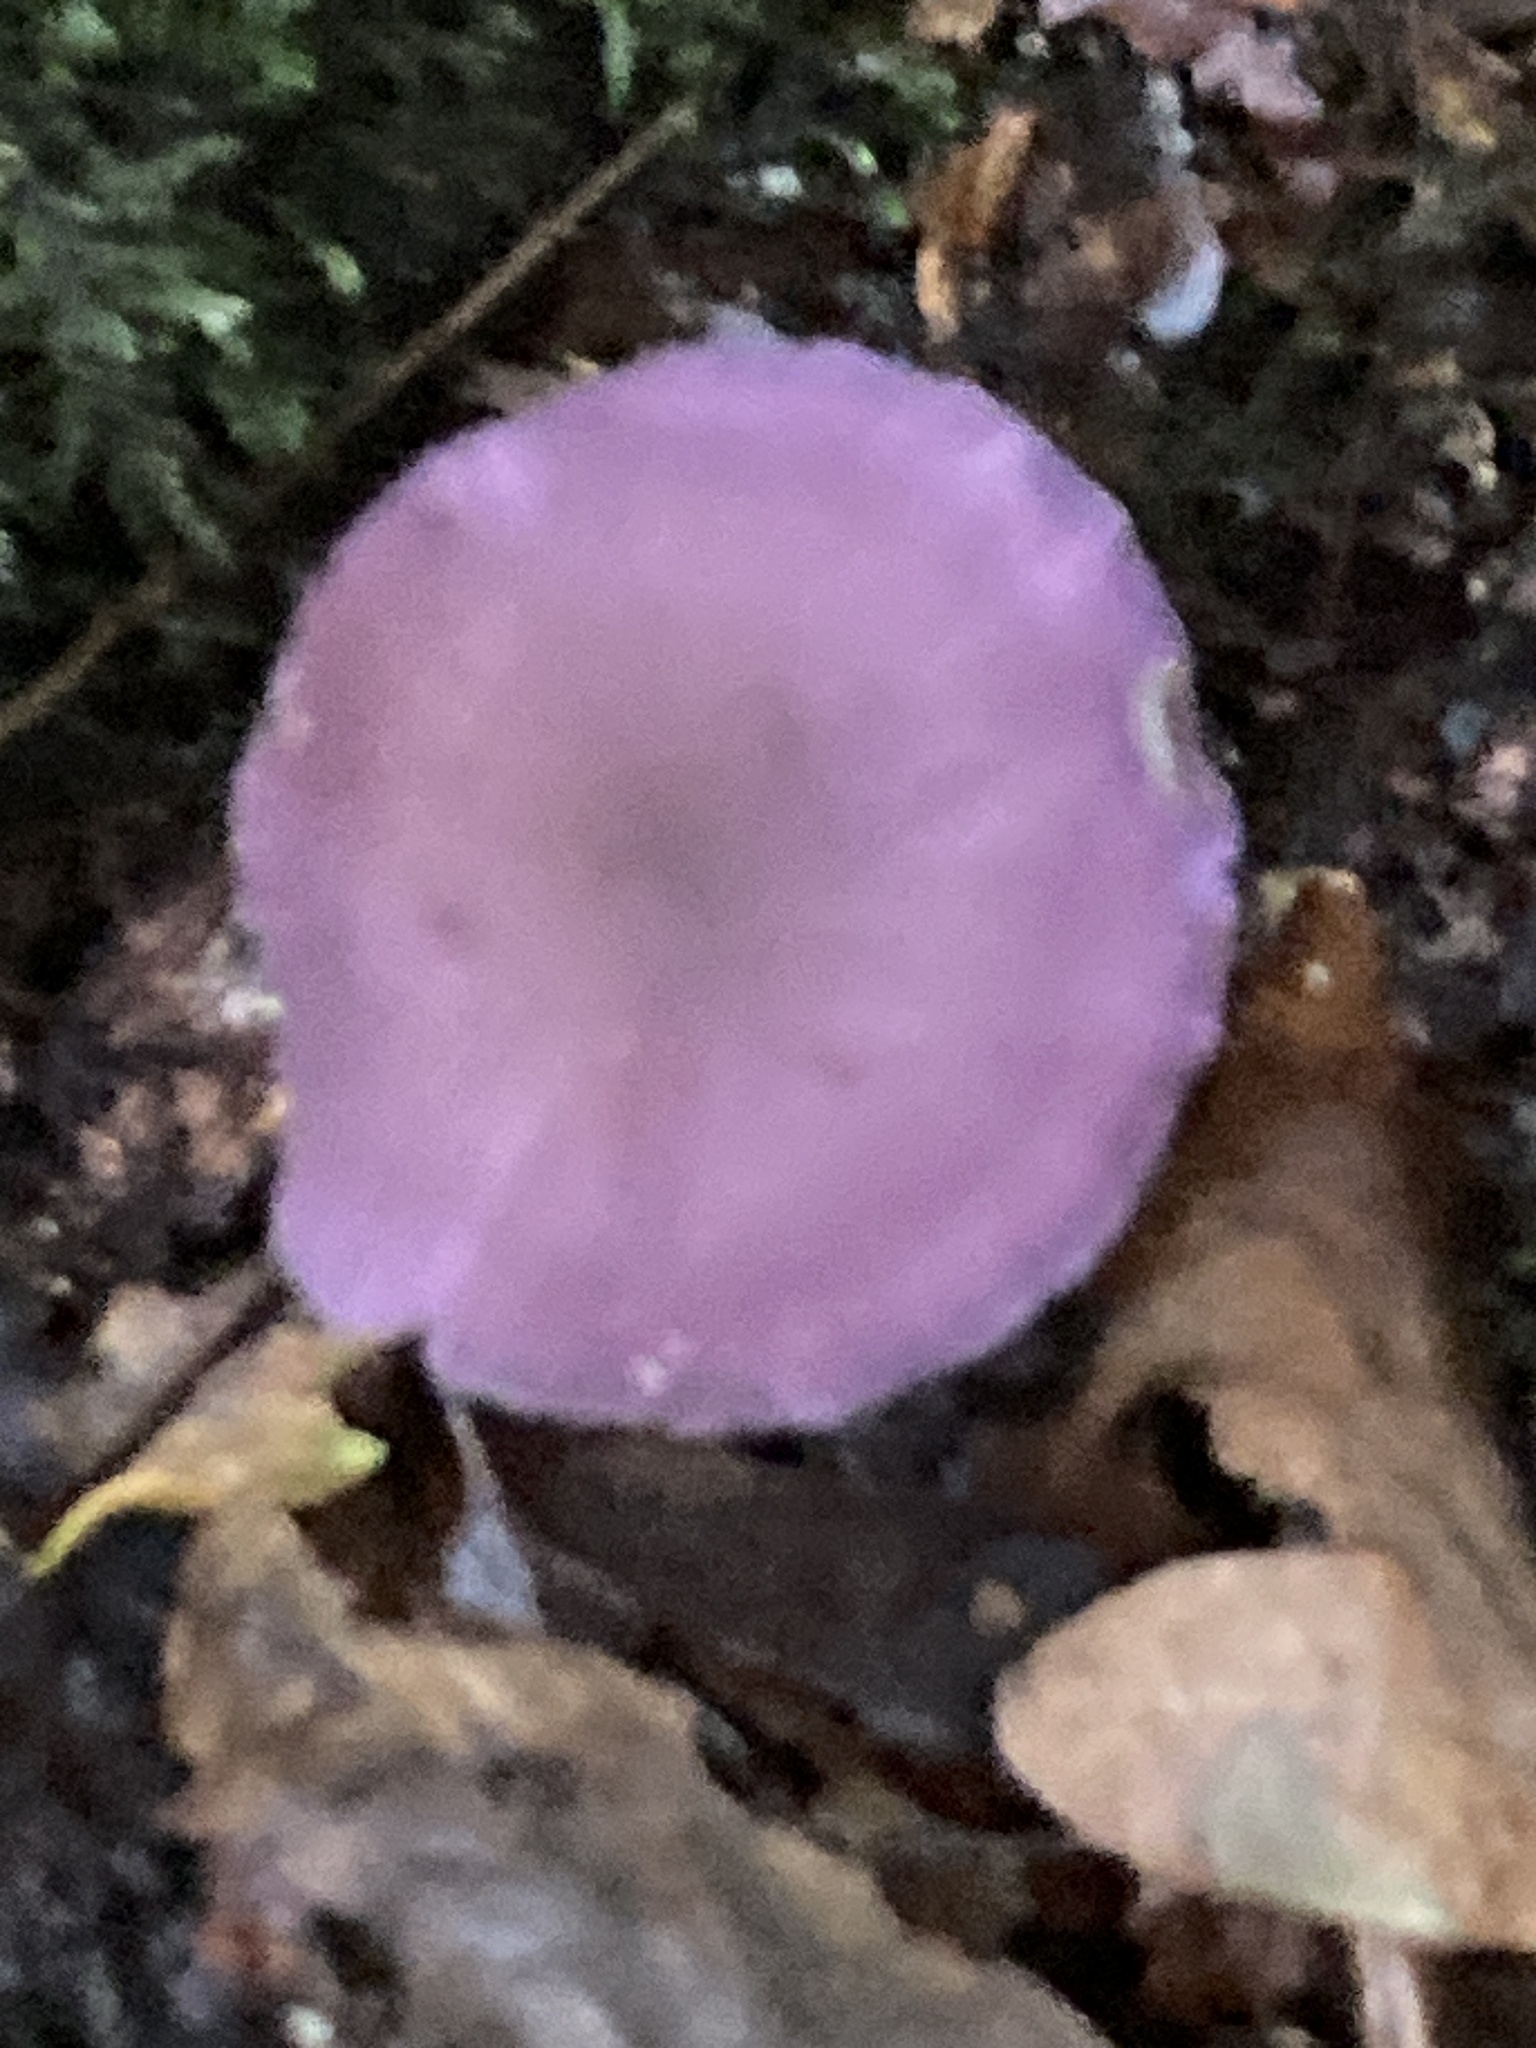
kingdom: Fungi
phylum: Basidiomycota
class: Agaricomycetes
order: Agaricales
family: Hydnangiaceae
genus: Laccaria
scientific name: Laccaria amethystina
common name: Amethyst deceiver
